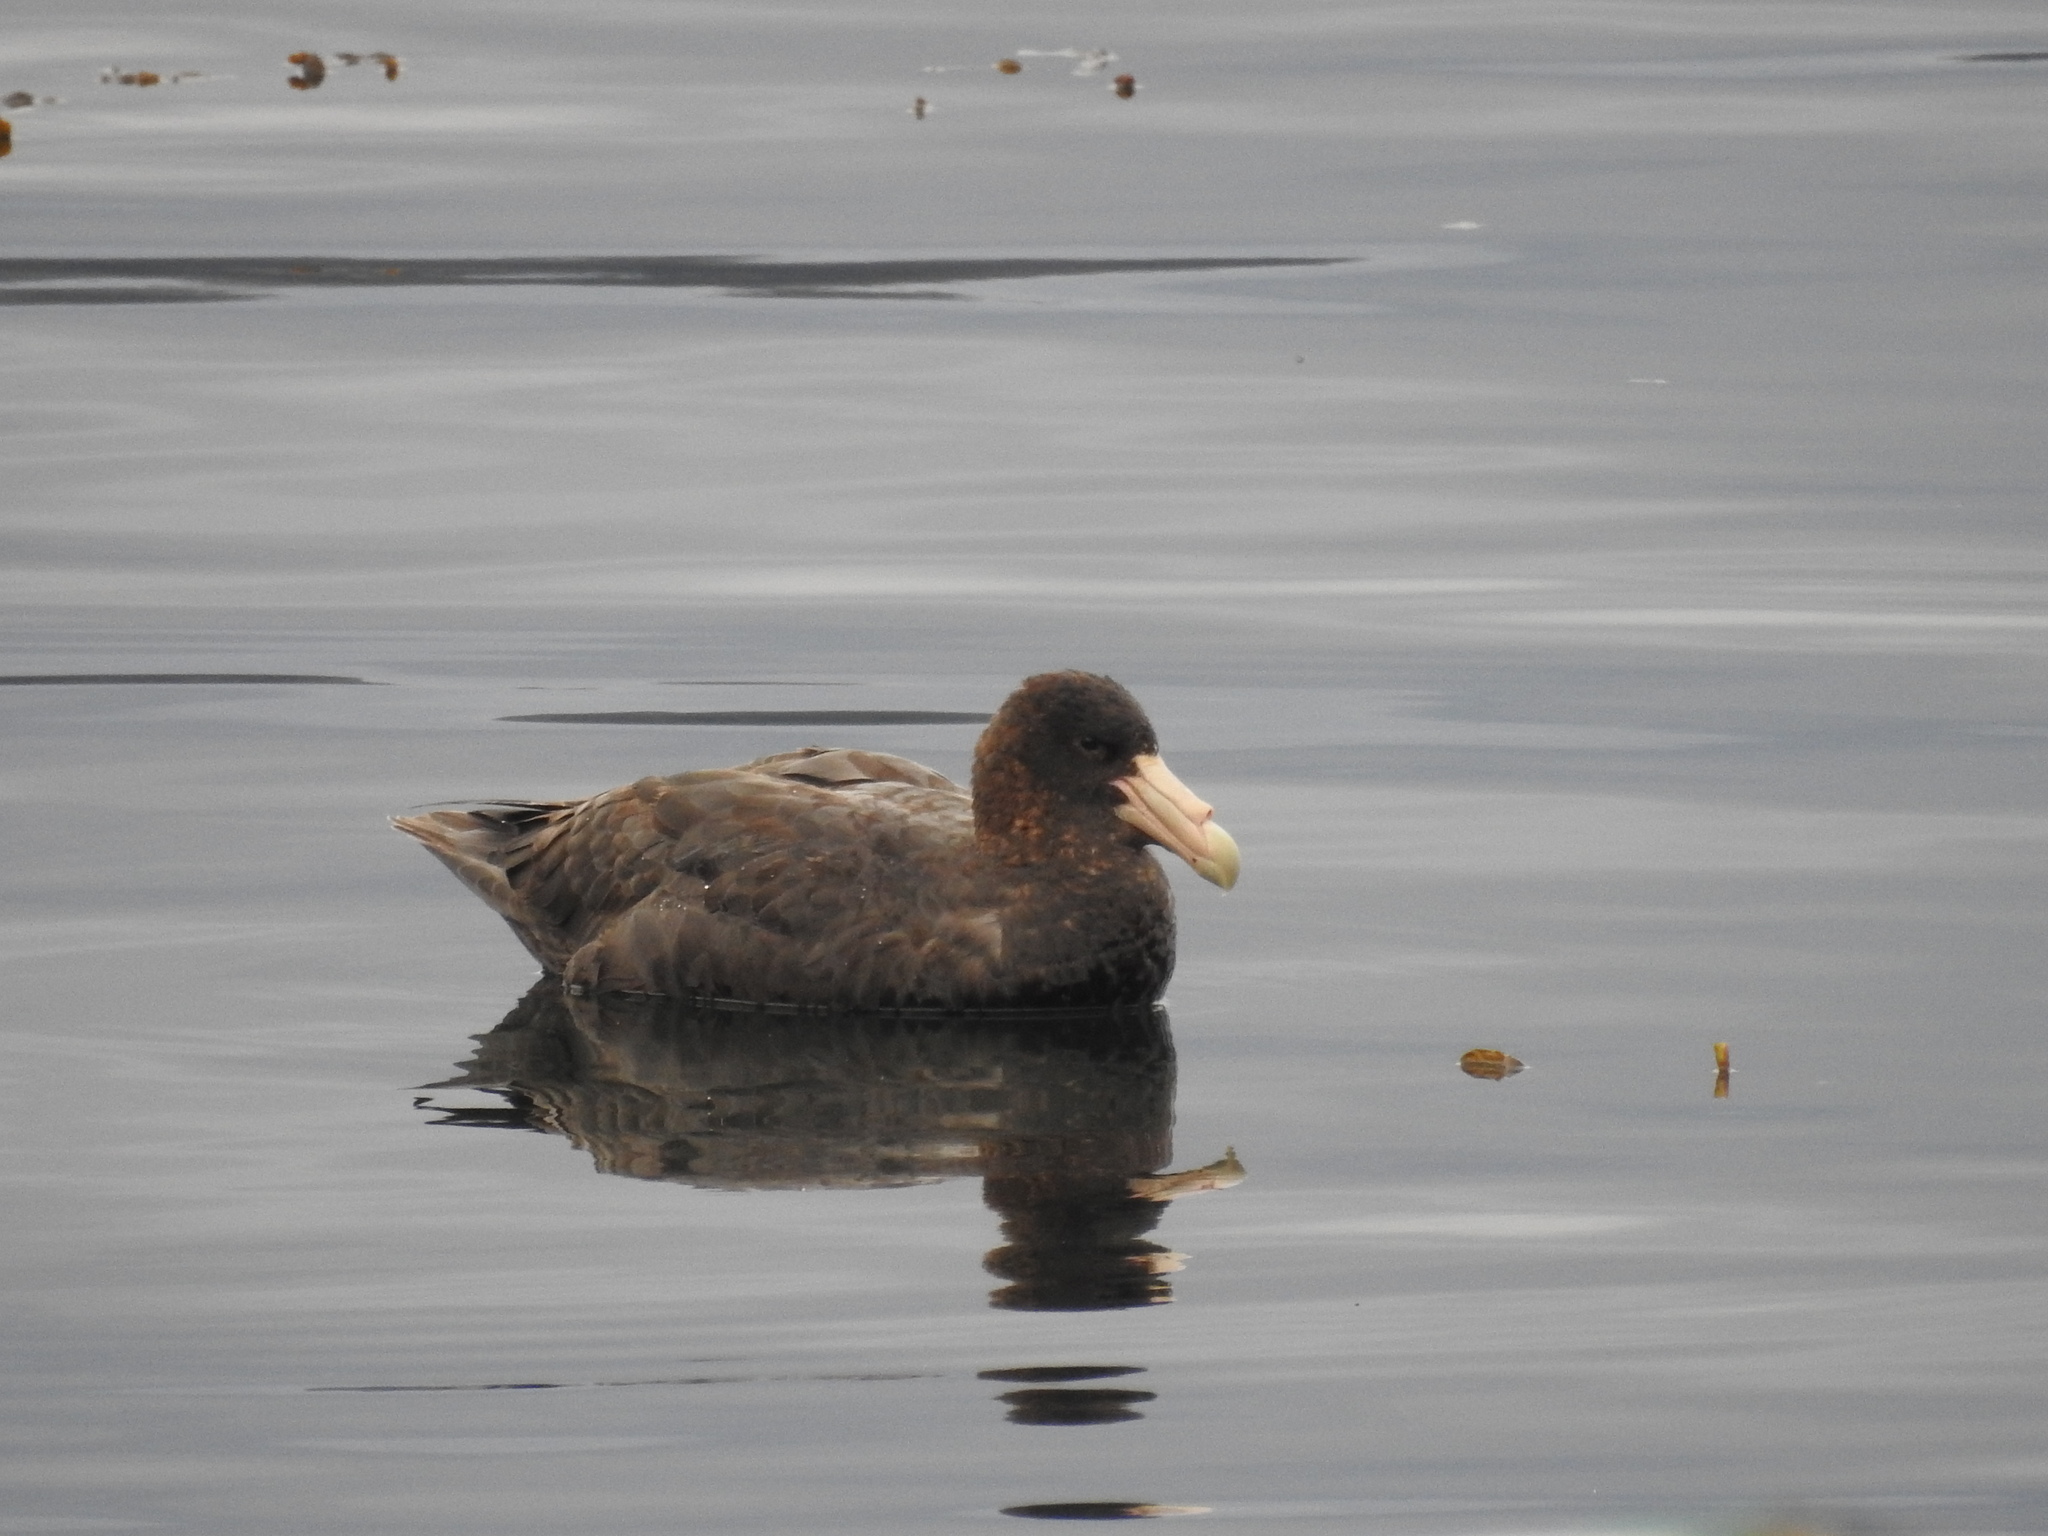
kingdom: Animalia
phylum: Chordata
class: Aves
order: Procellariiformes
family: Procellariidae
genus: Macronectes
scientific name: Macronectes giganteus
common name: Southern giant petrel
